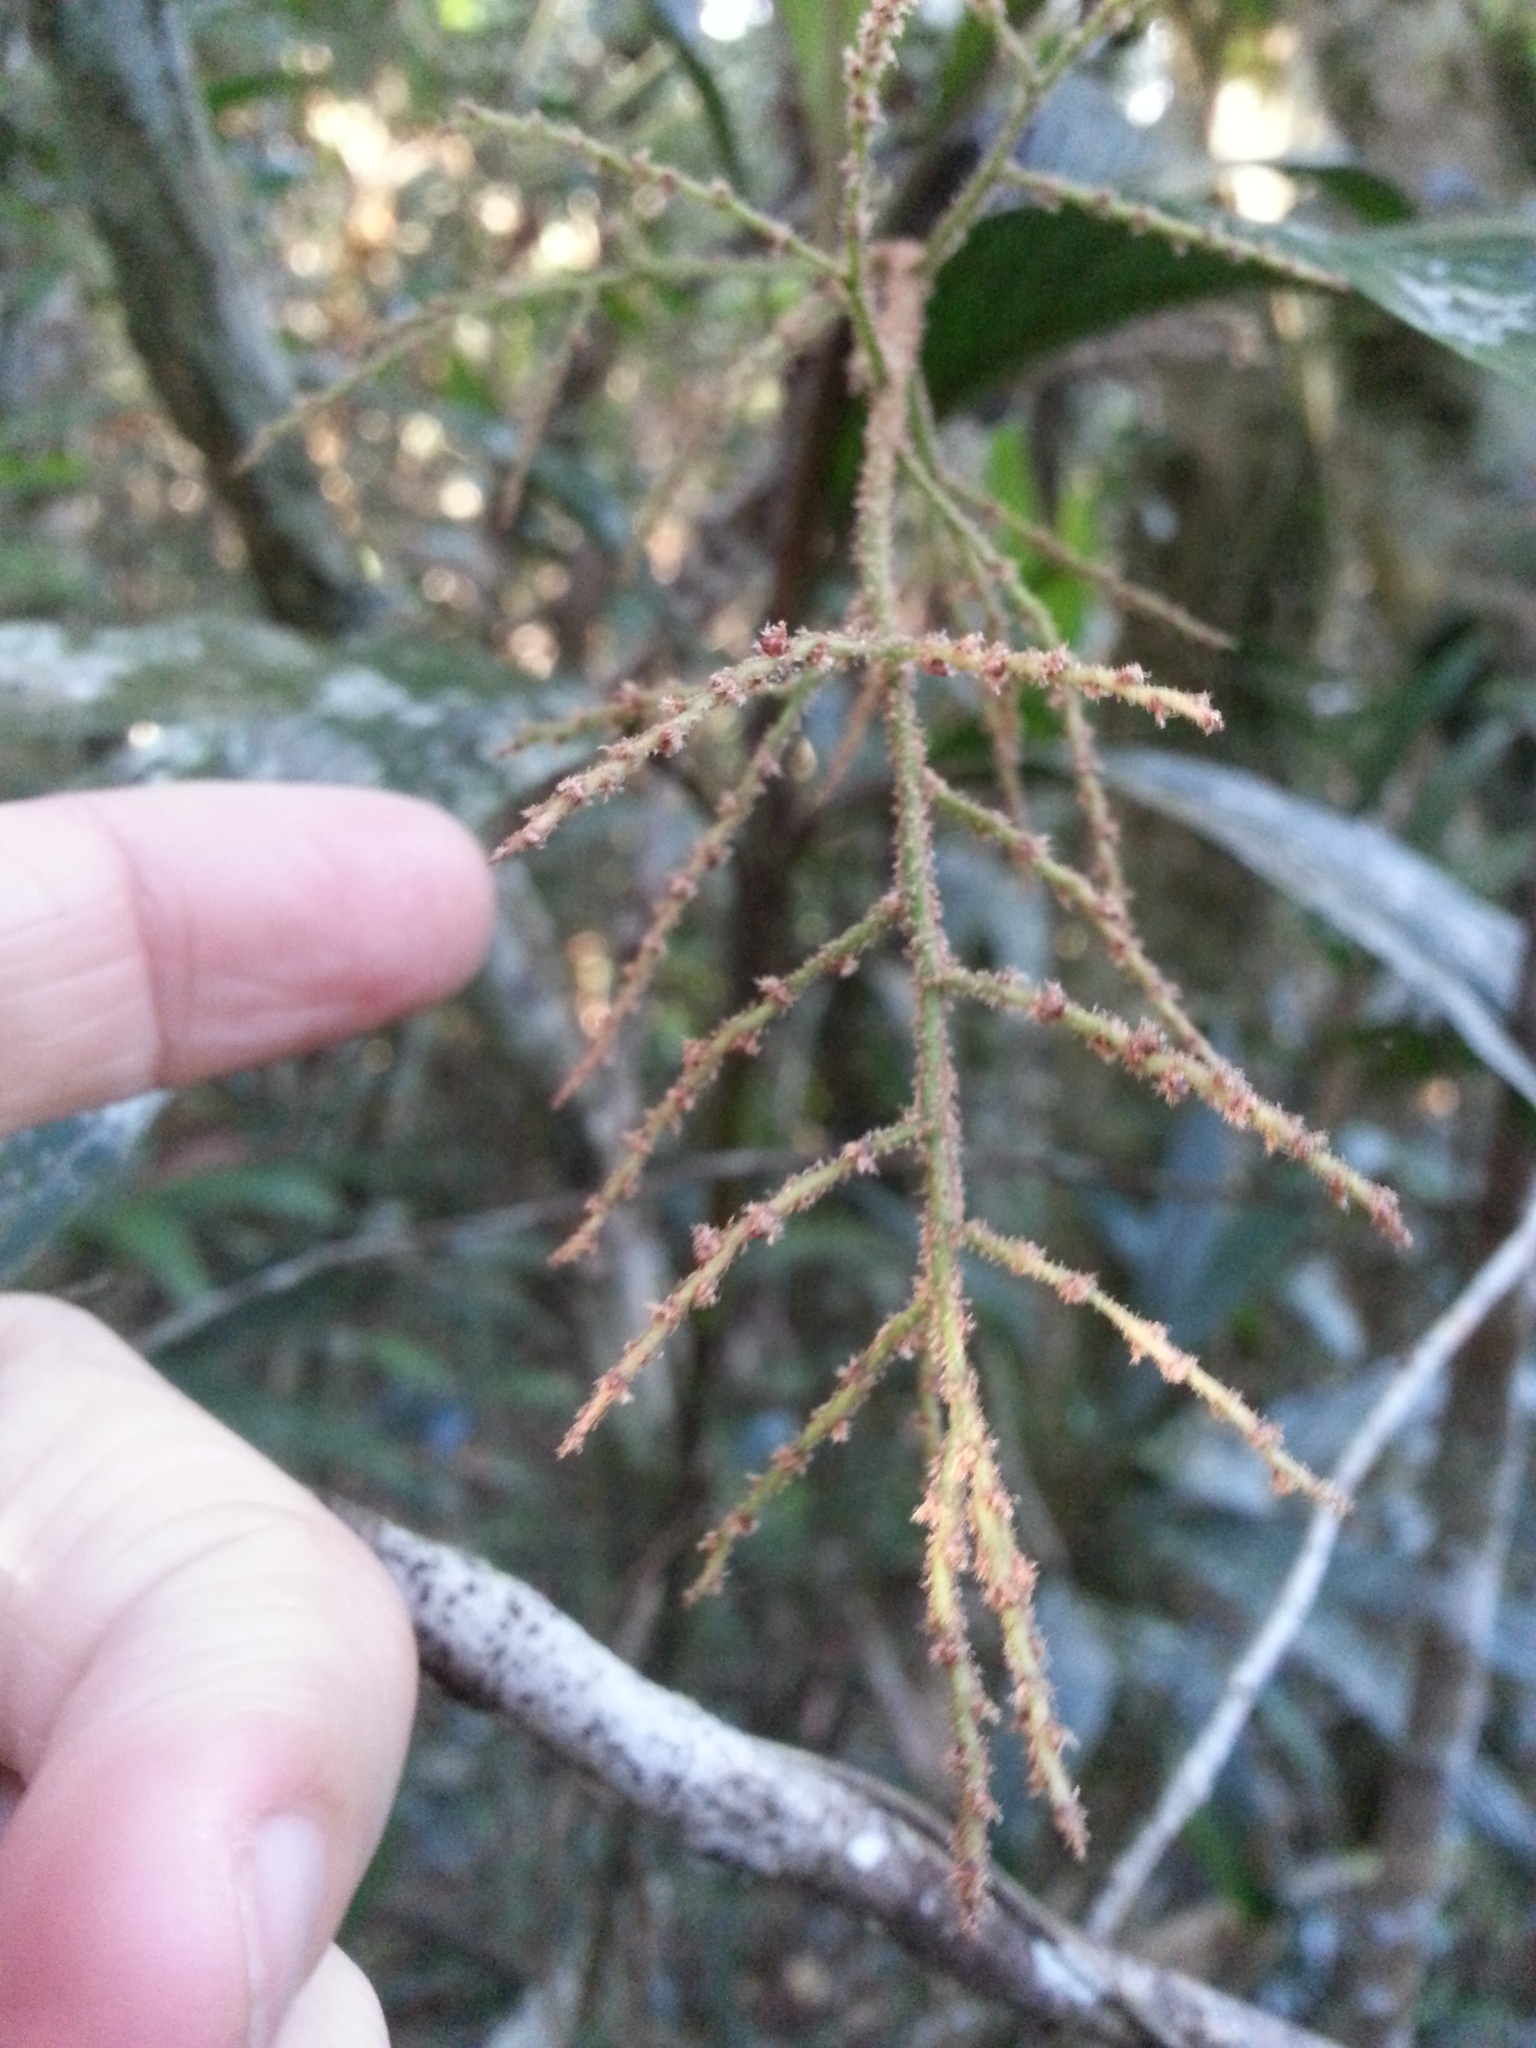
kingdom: Plantae
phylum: Tracheophyta
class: Liliopsida
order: Arecales
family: Arecaceae
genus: Dypsis
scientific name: Dypsis hildebrandtii
